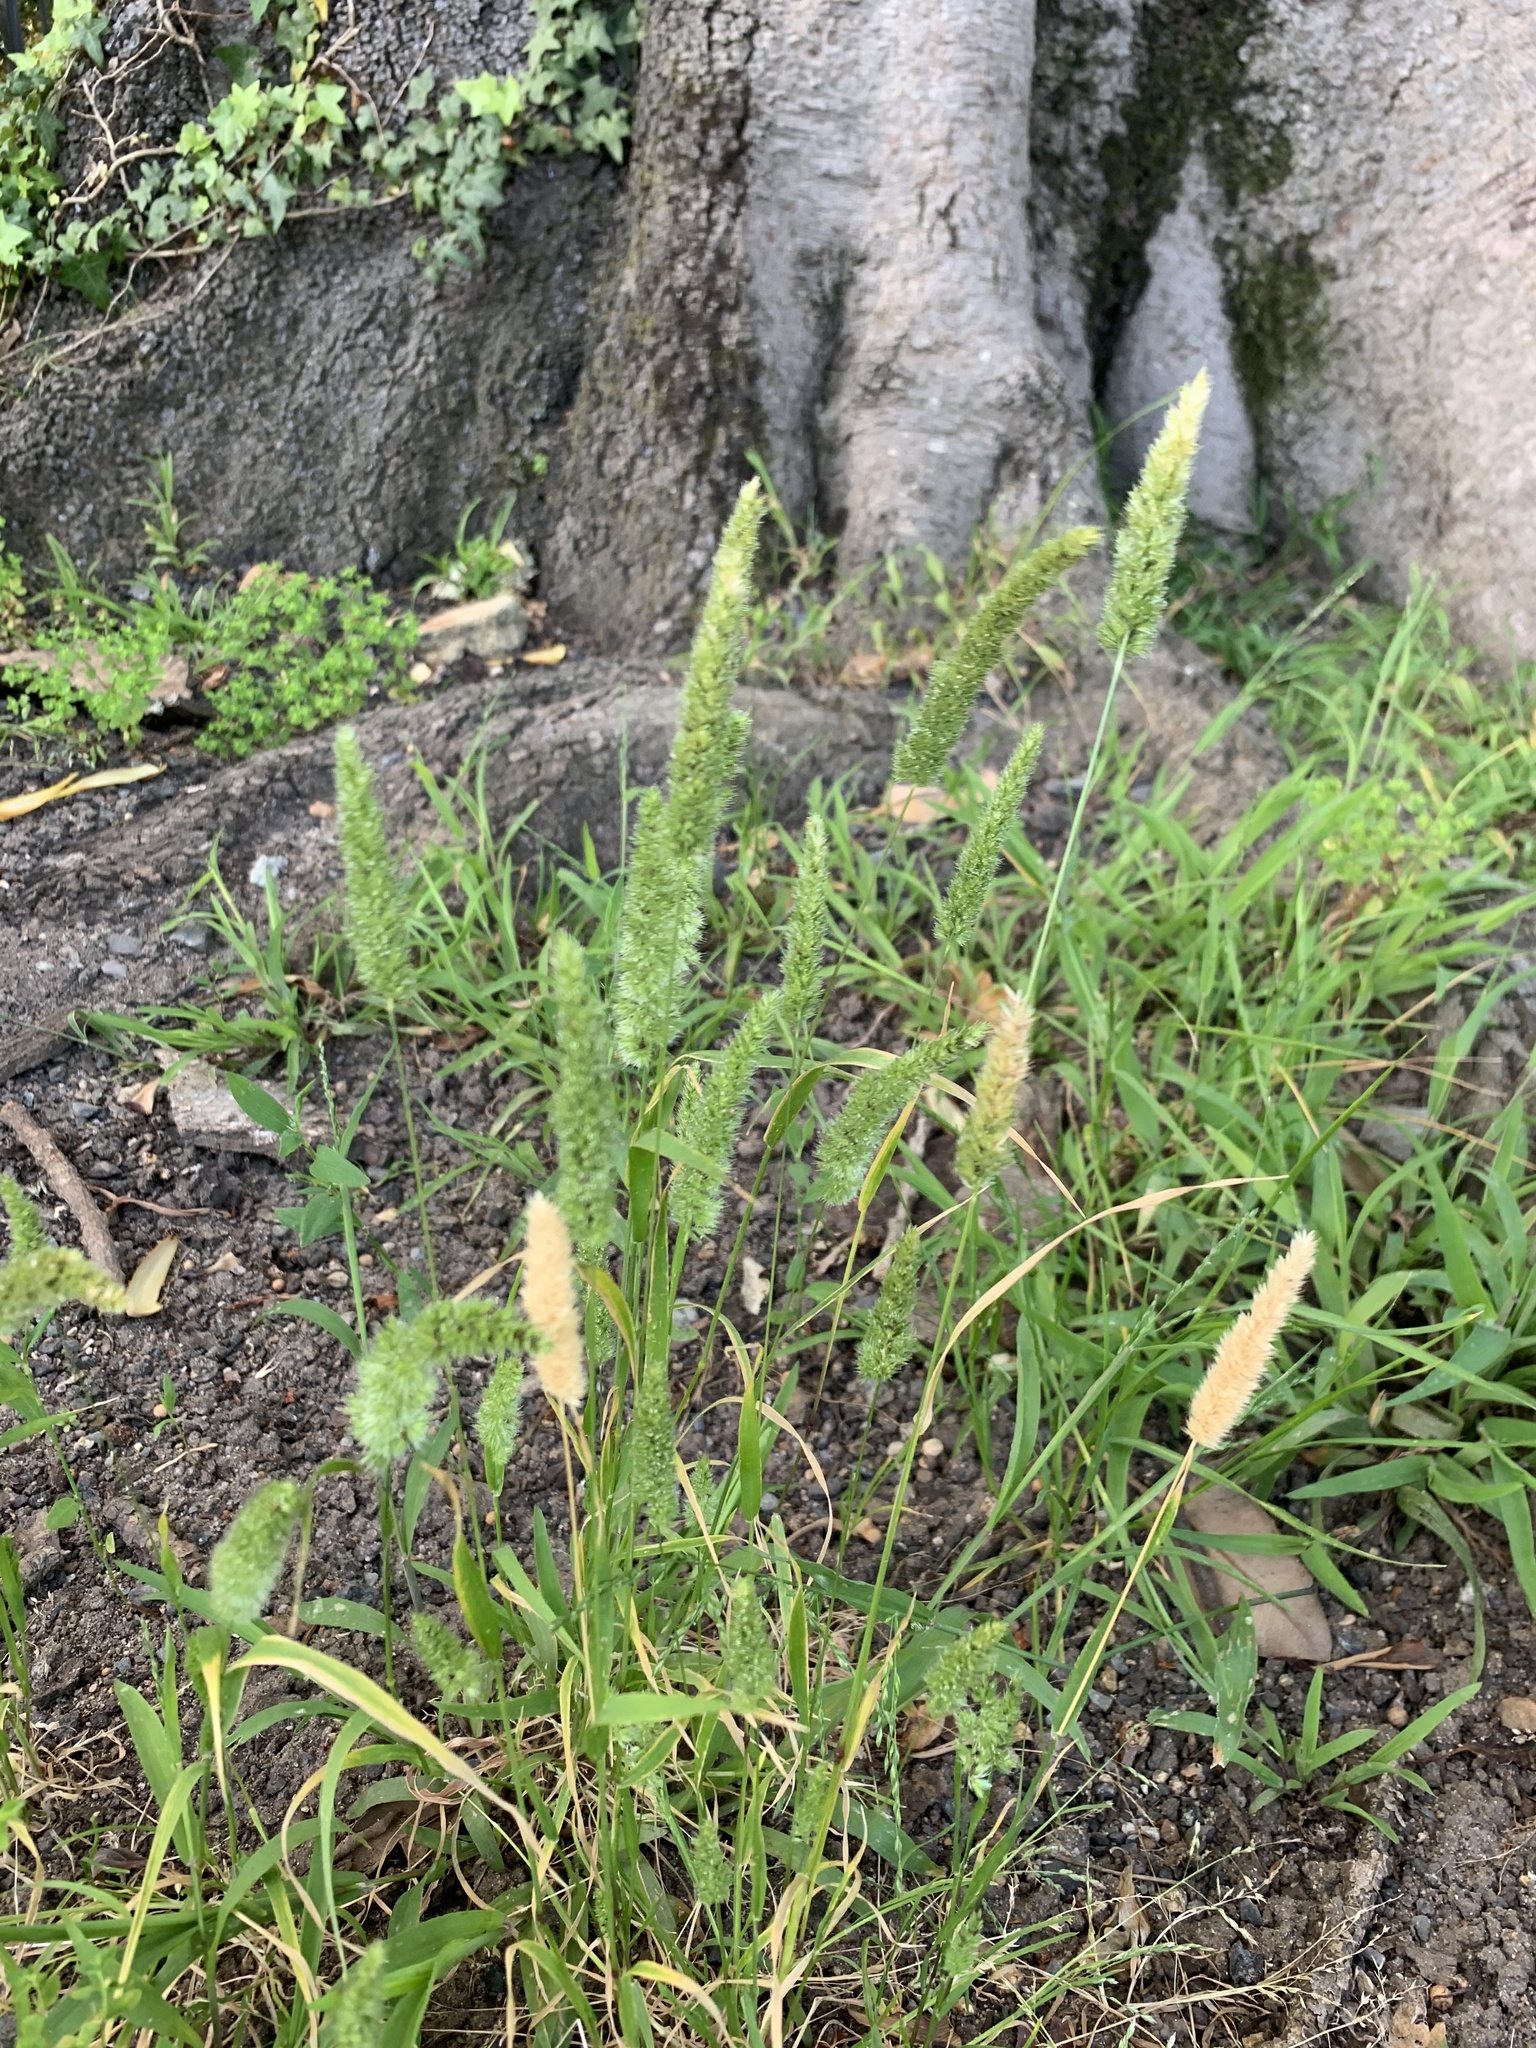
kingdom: Plantae
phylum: Tracheophyta
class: Liliopsida
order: Poales
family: Poaceae
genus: Rostraria
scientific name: Rostraria cristata
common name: Mediterranean hair-grass
